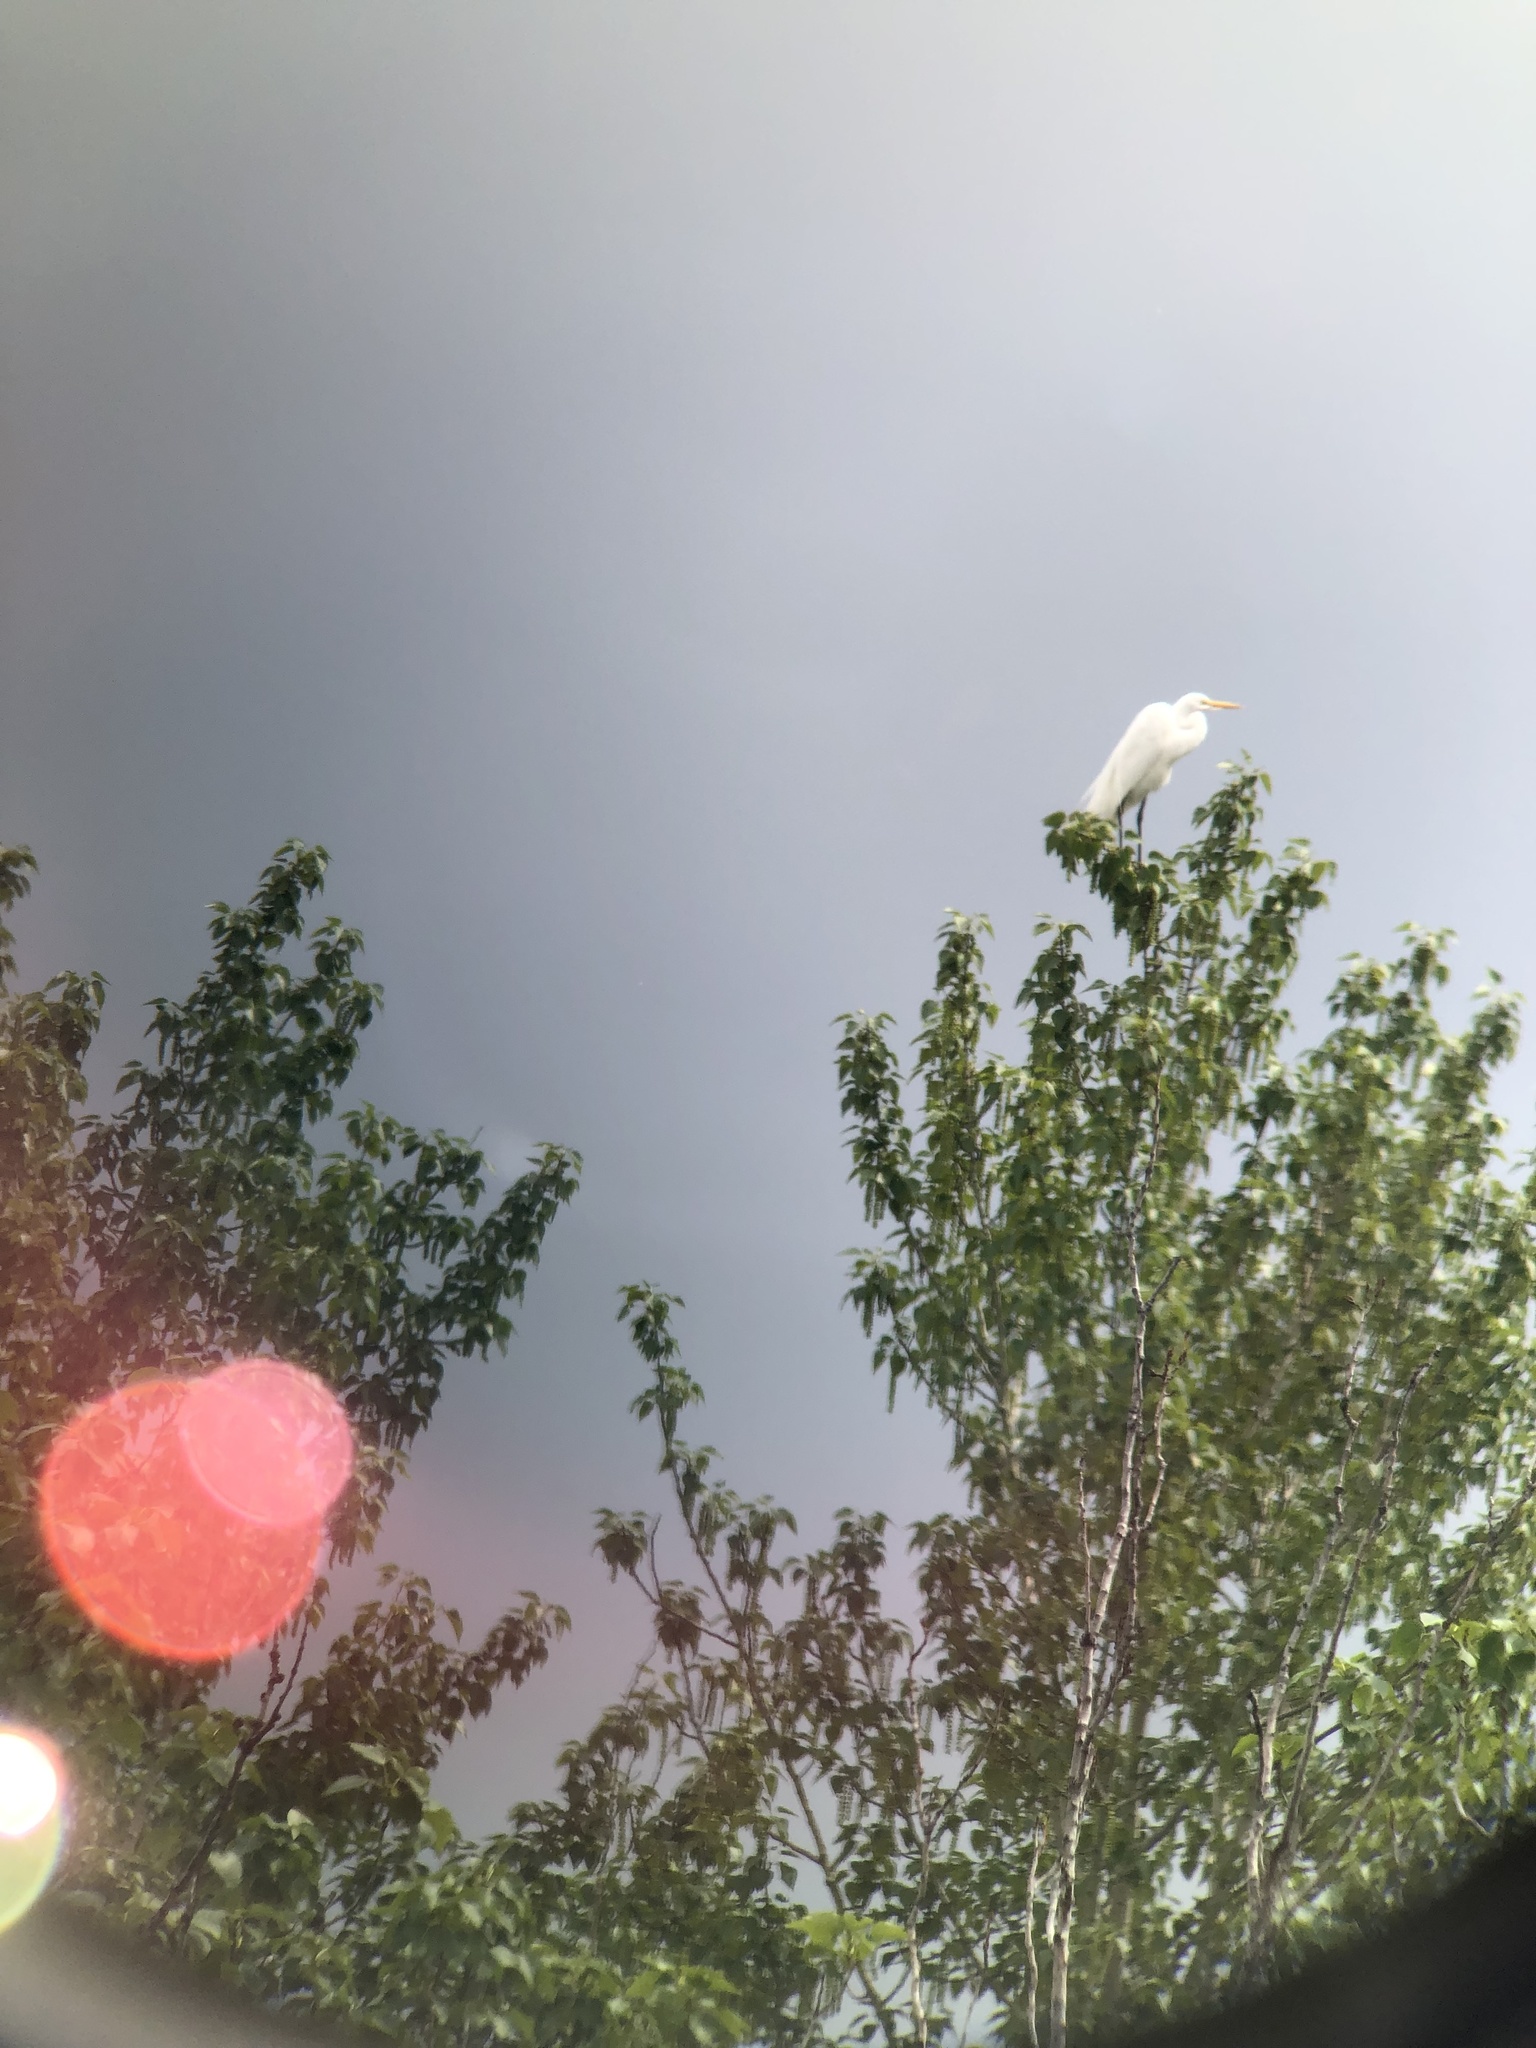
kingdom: Animalia
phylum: Chordata
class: Aves
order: Pelecaniformes
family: Ardeidae
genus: Ardea
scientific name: Ardea alba
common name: Great egret
